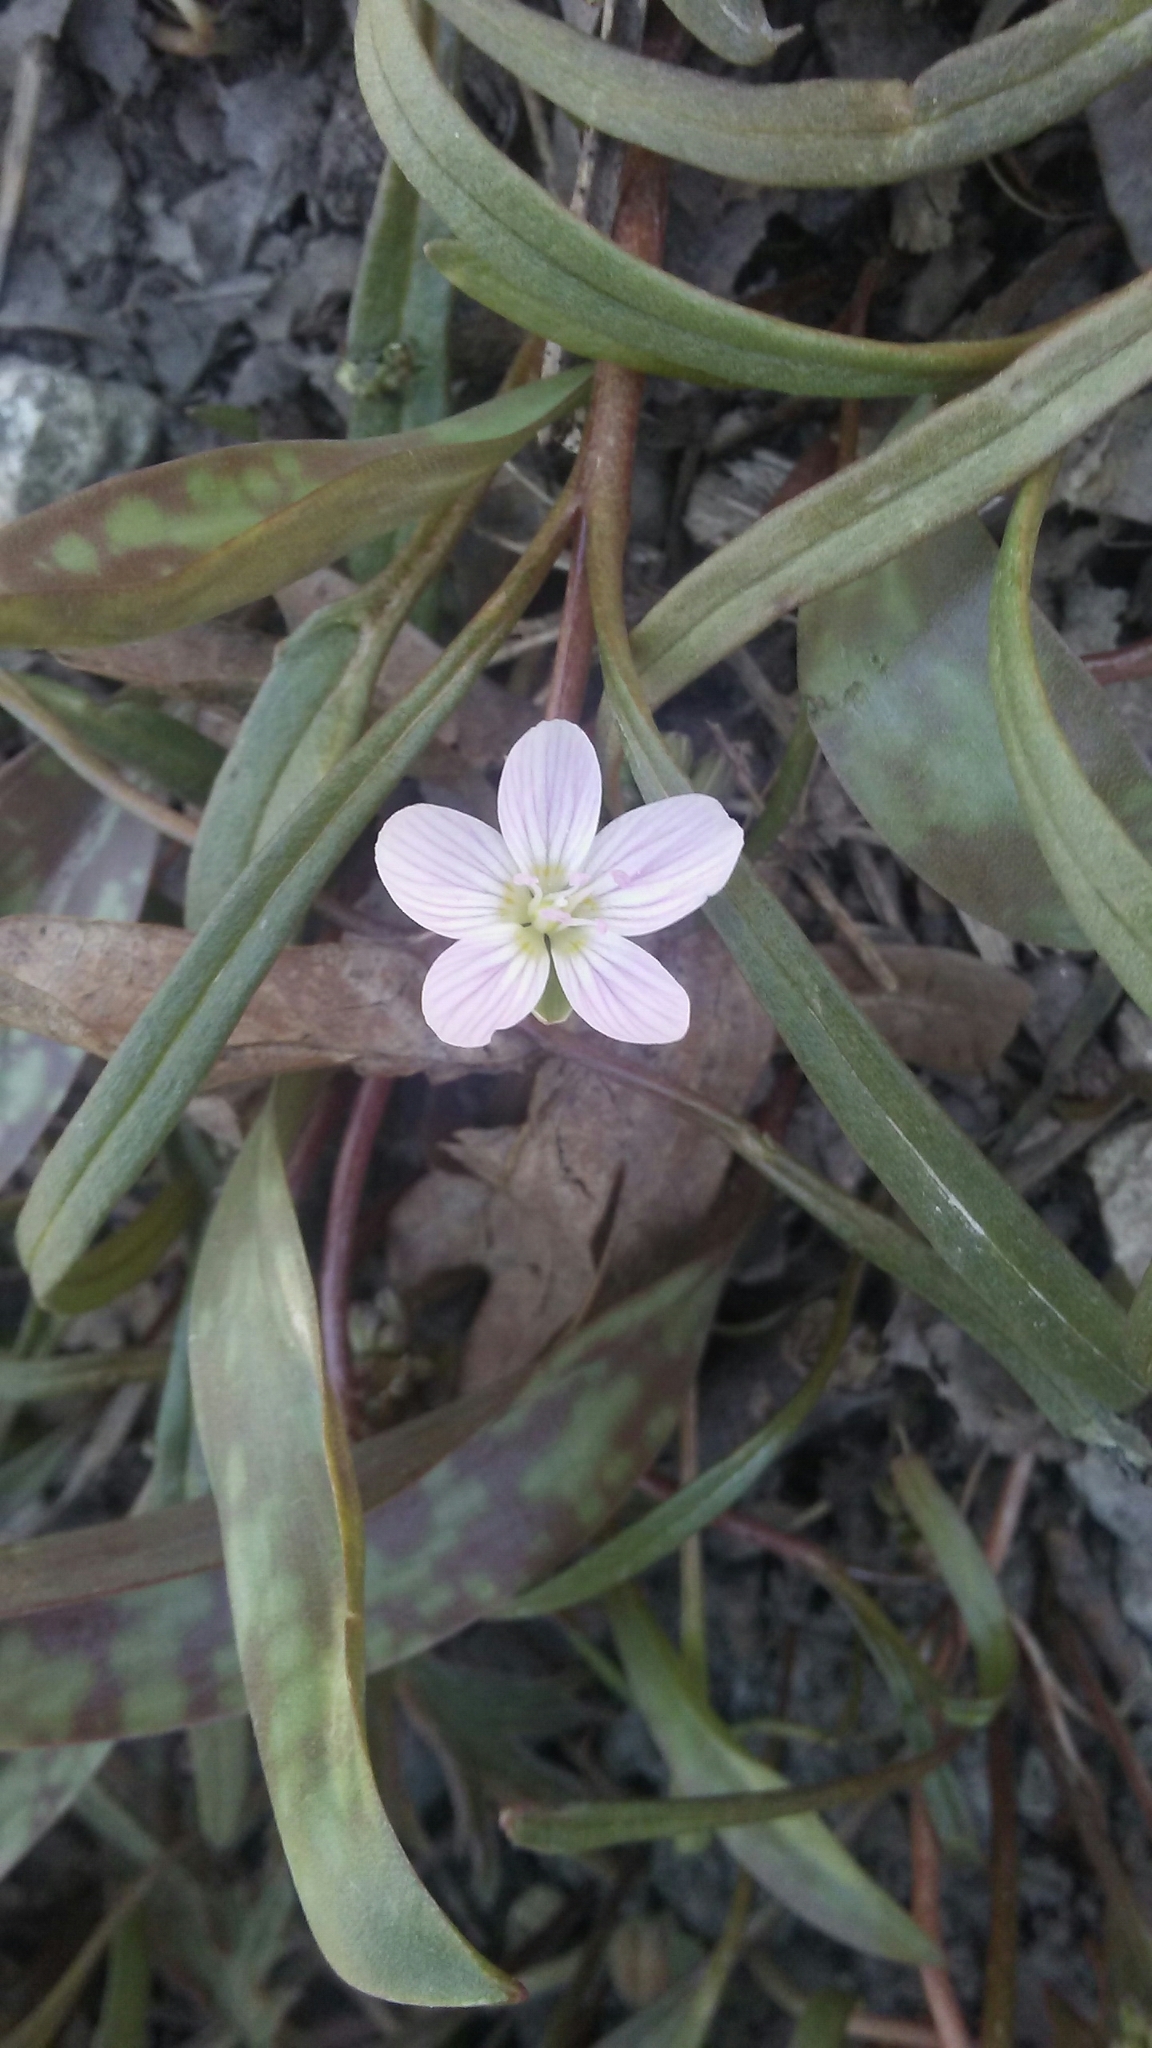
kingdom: Plantae
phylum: Tracheophyta
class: Magnoliopsida
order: Caryophyllales
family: Montiaceae
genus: Claytonia
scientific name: Claytonia virginica
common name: Virginia springbeauty
